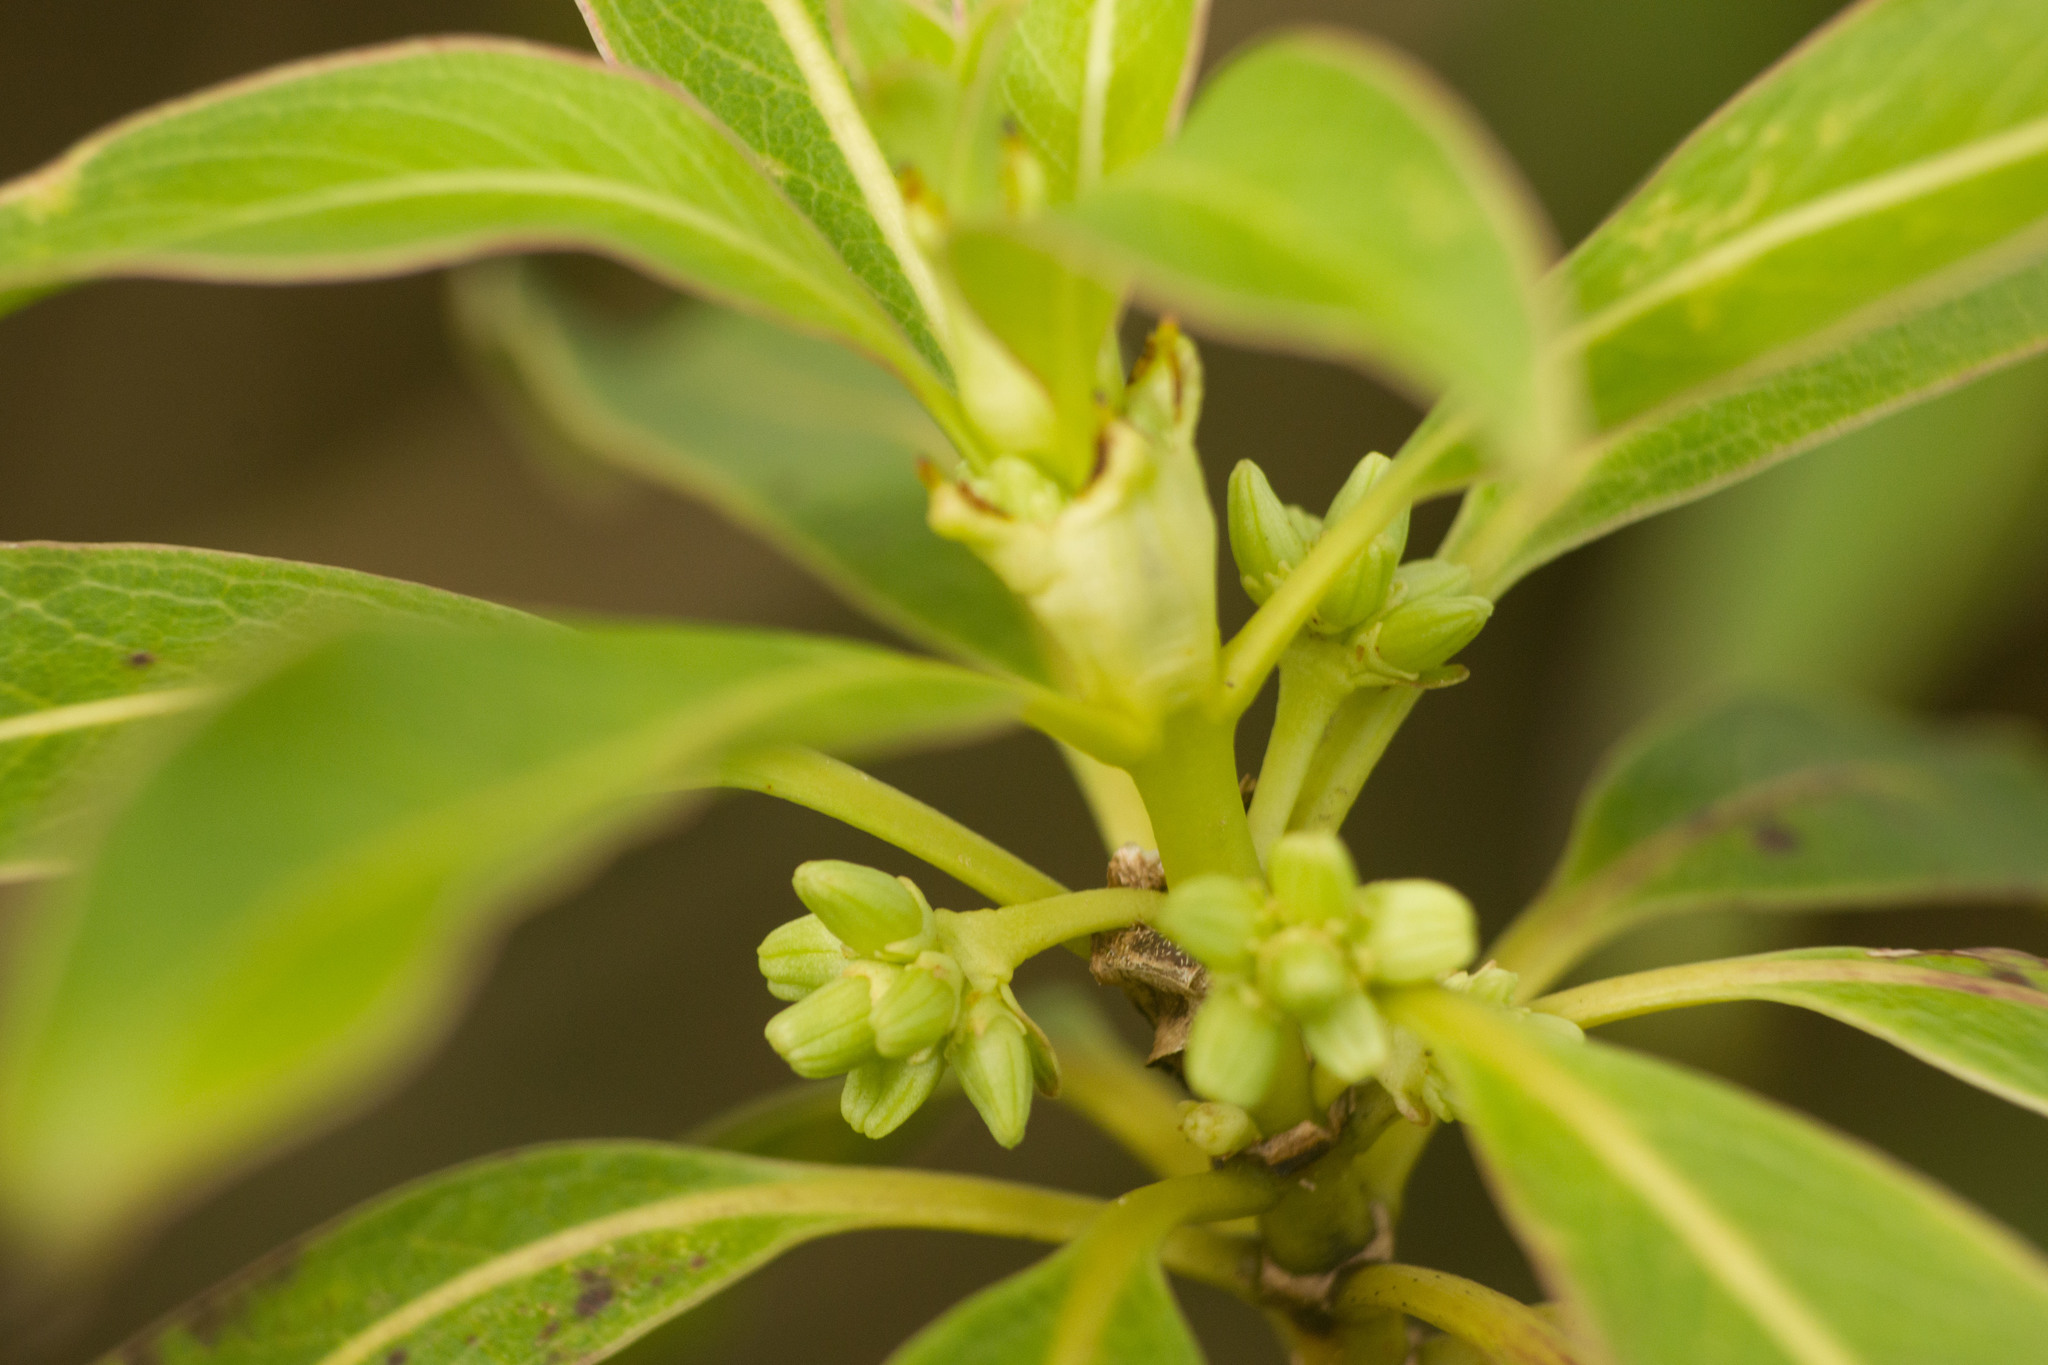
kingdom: Plantae
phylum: Tracheophyta
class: Magnoliopsida
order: Gentianales
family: Rubiaceae
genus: Coprosma
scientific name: Coprosma longifolia
